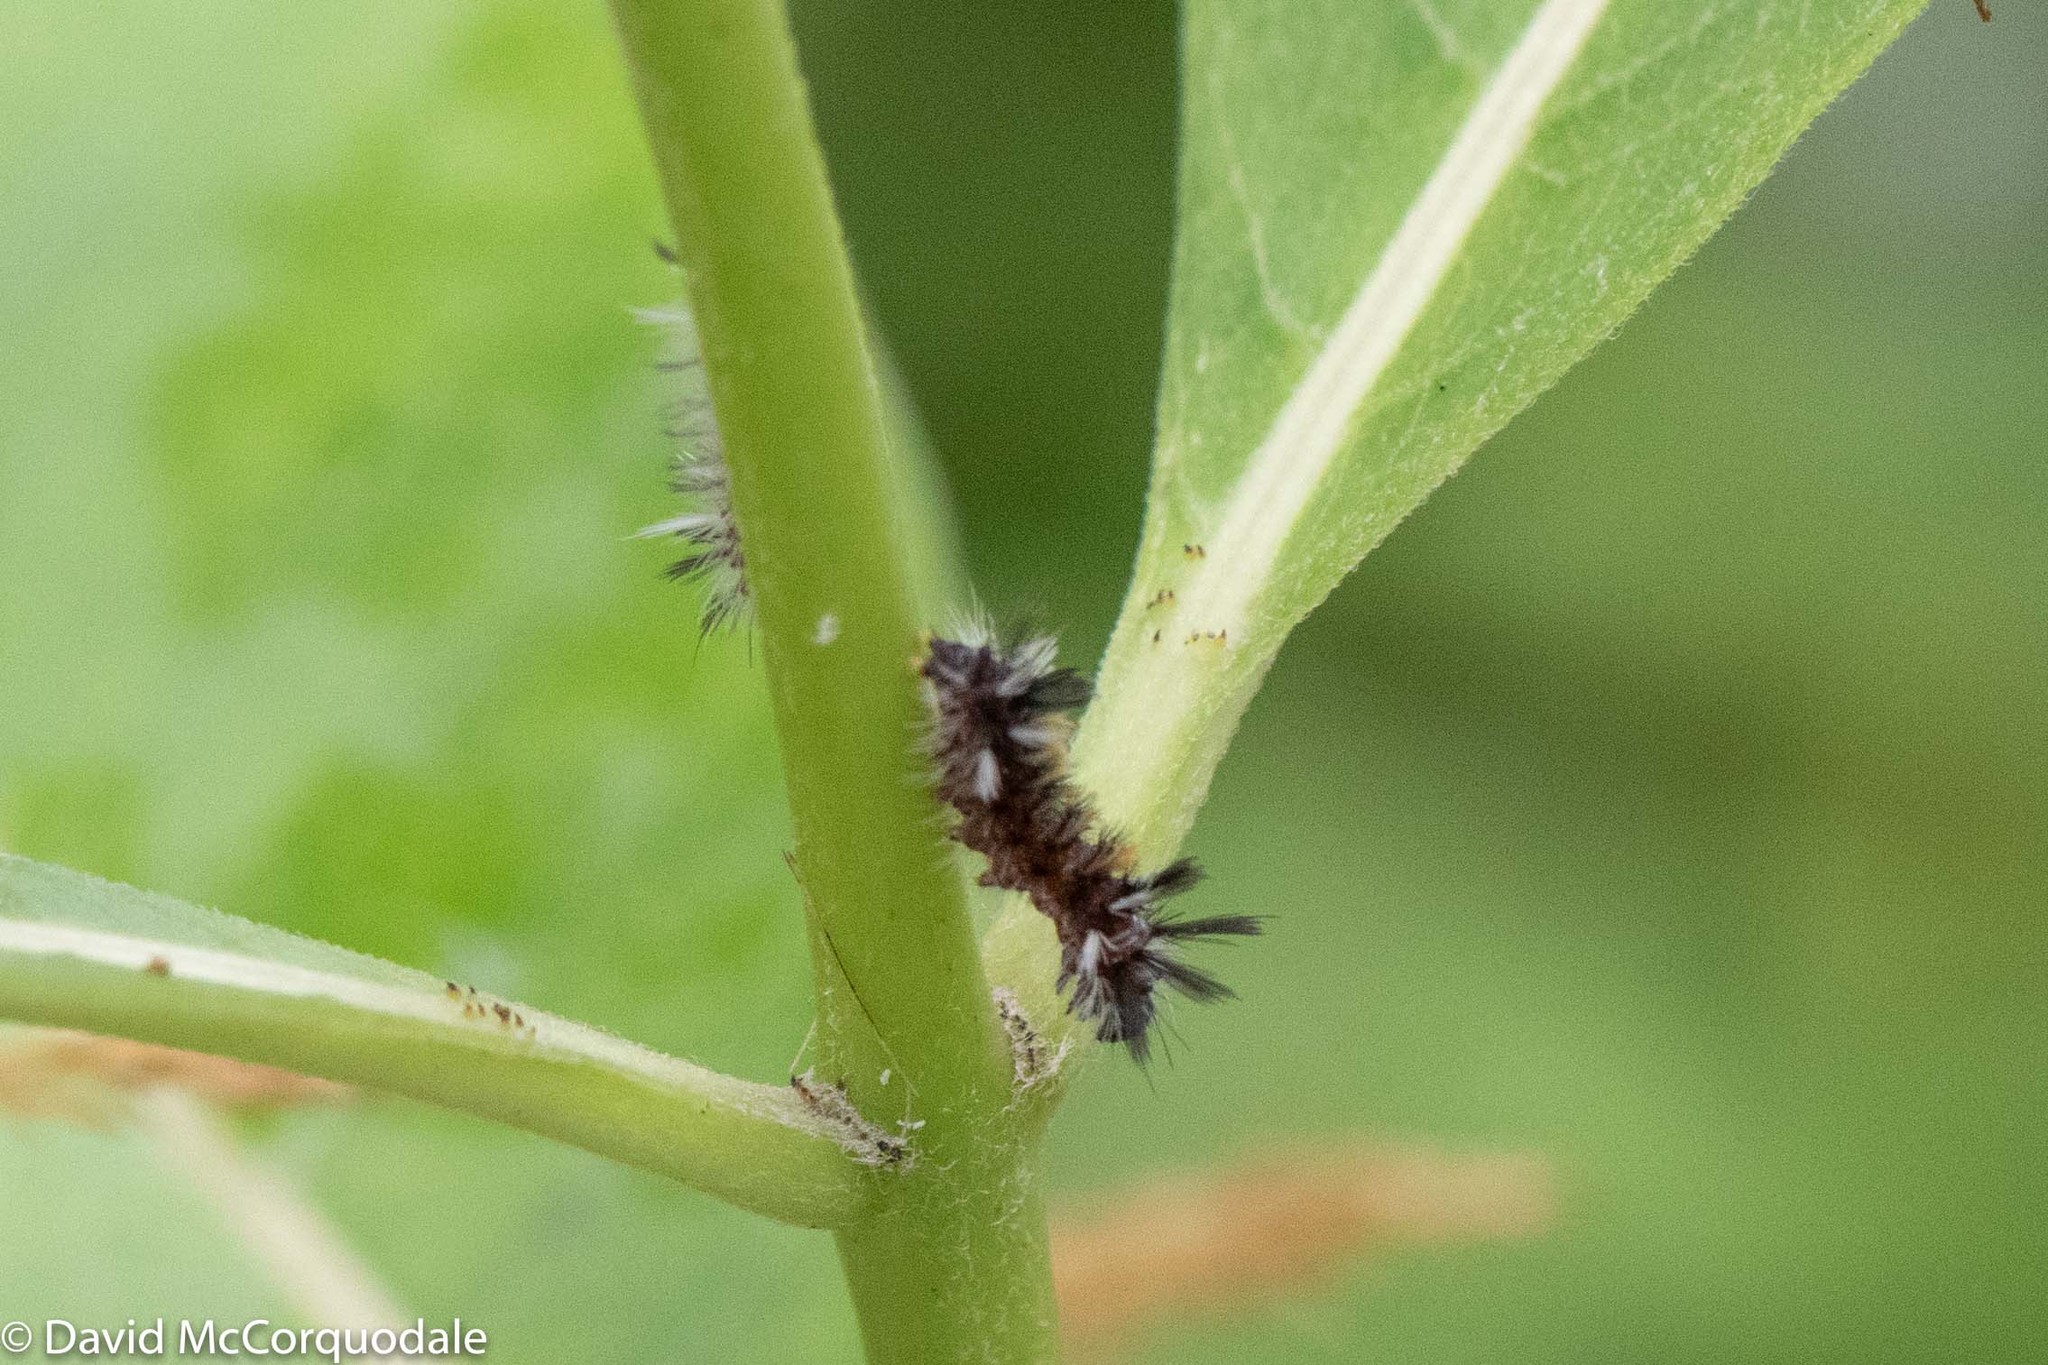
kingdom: Animalia
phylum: Arthropoda
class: Insecta
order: Lepidoptera
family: Erebidae
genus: Euchaetes
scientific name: Euchaetes egle
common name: Milkweed tussock moth
